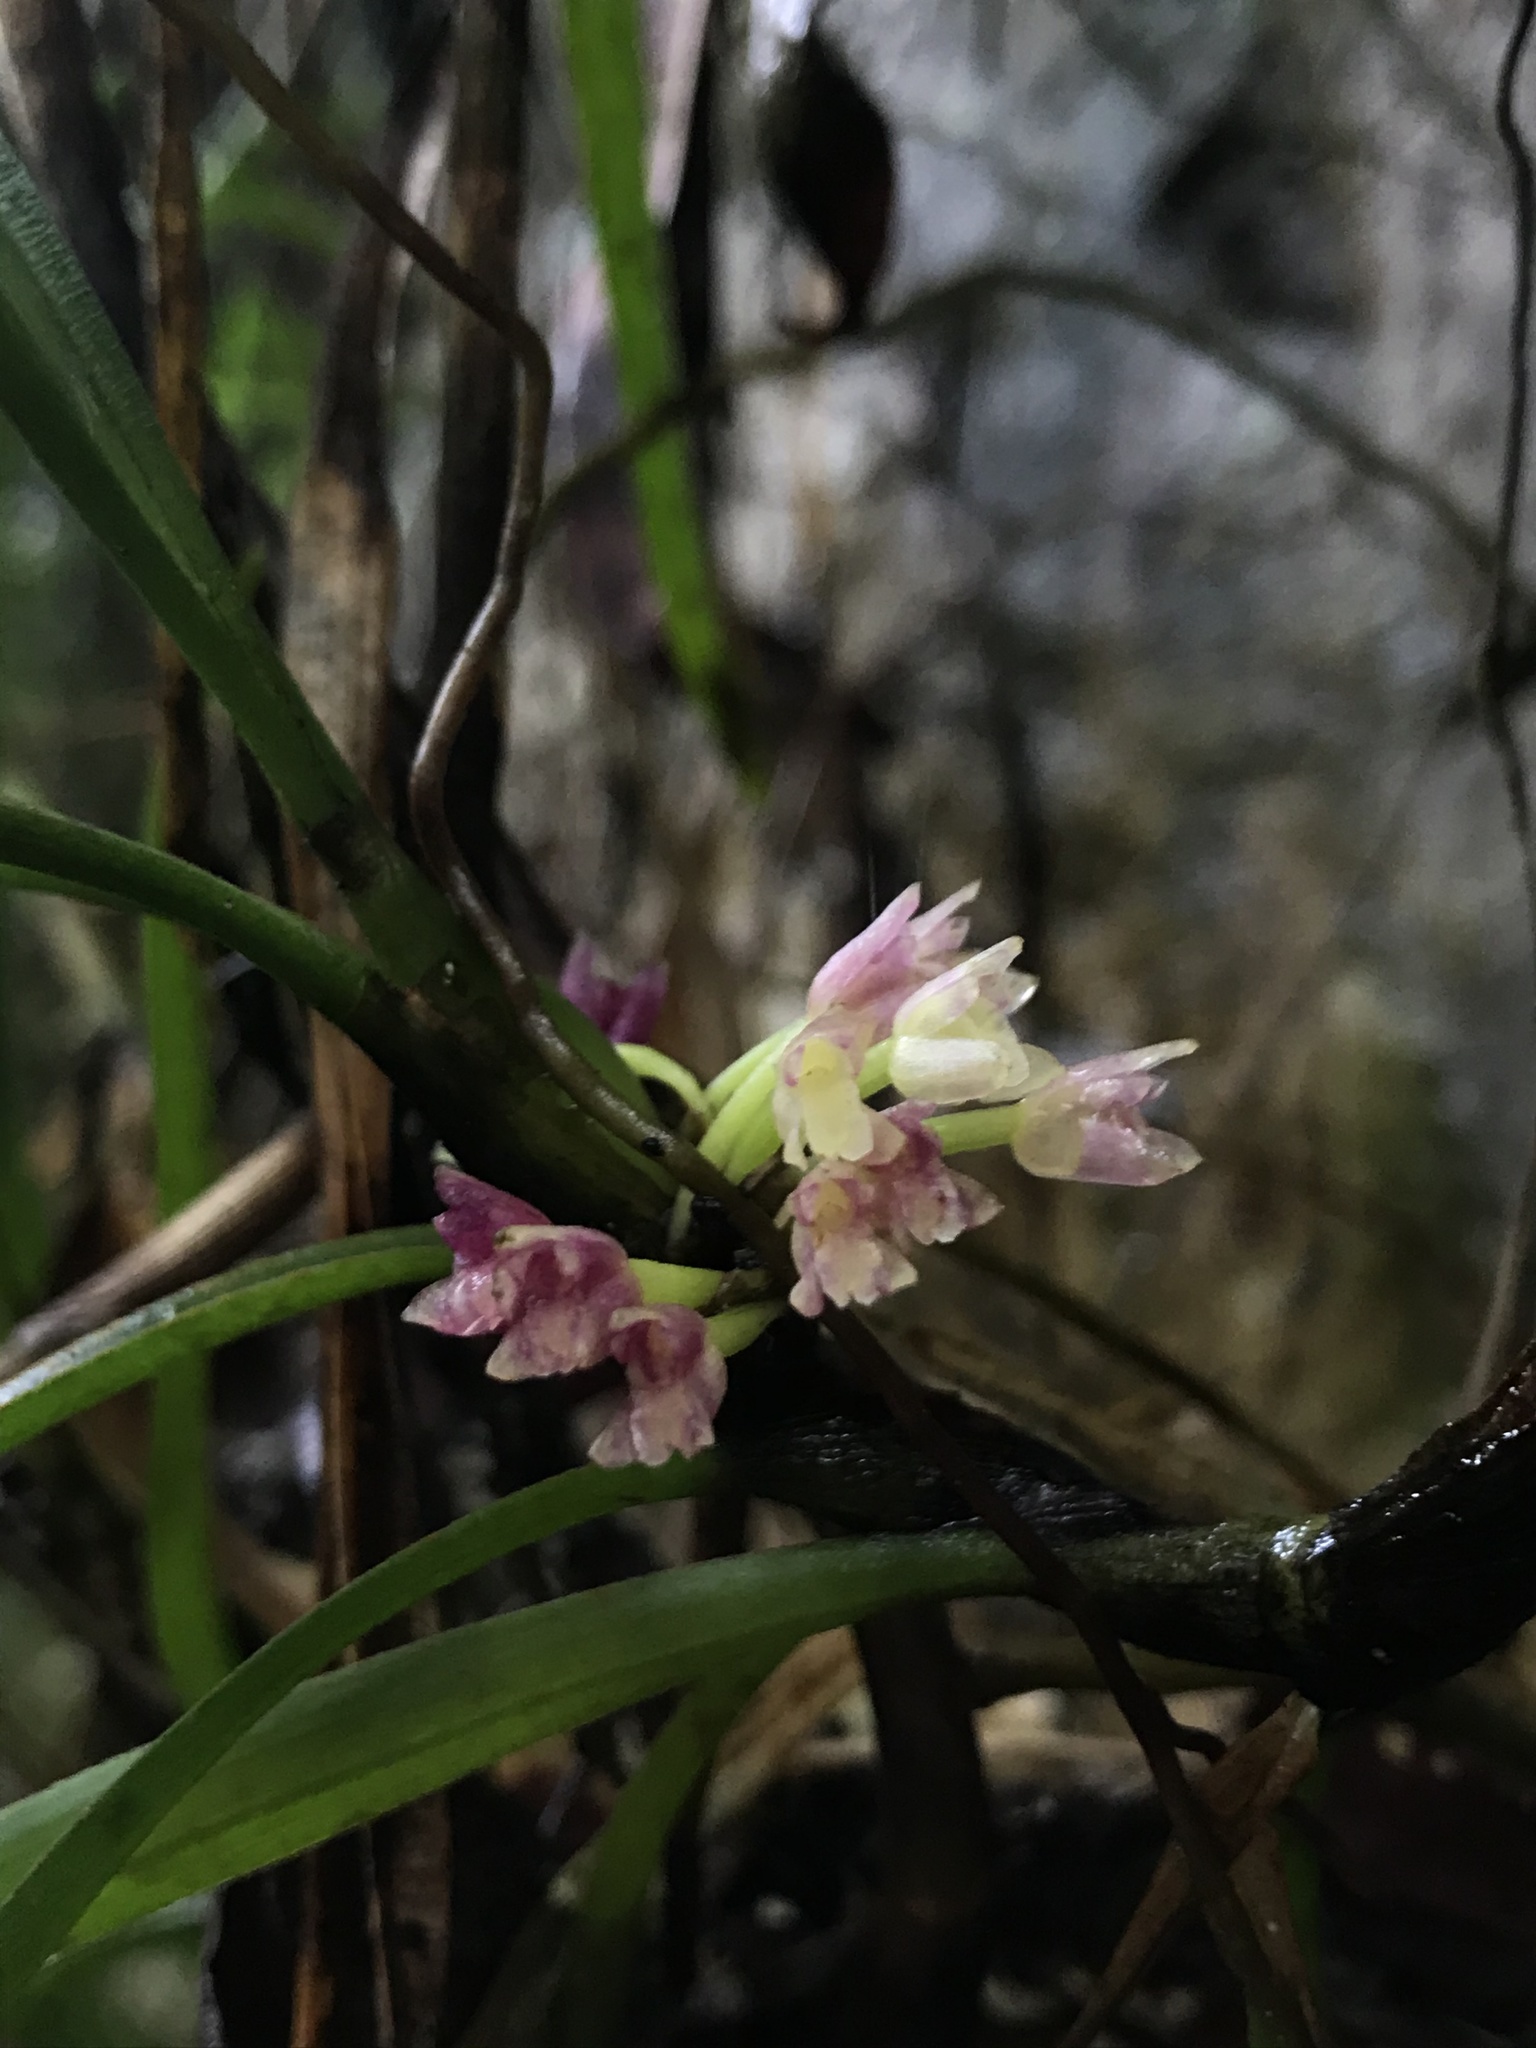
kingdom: Plantae
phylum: Tracheophyta
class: Liliopsida
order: Asparagales
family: Orchidaceae
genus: Maxillaria
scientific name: Maxillaria aggregata
